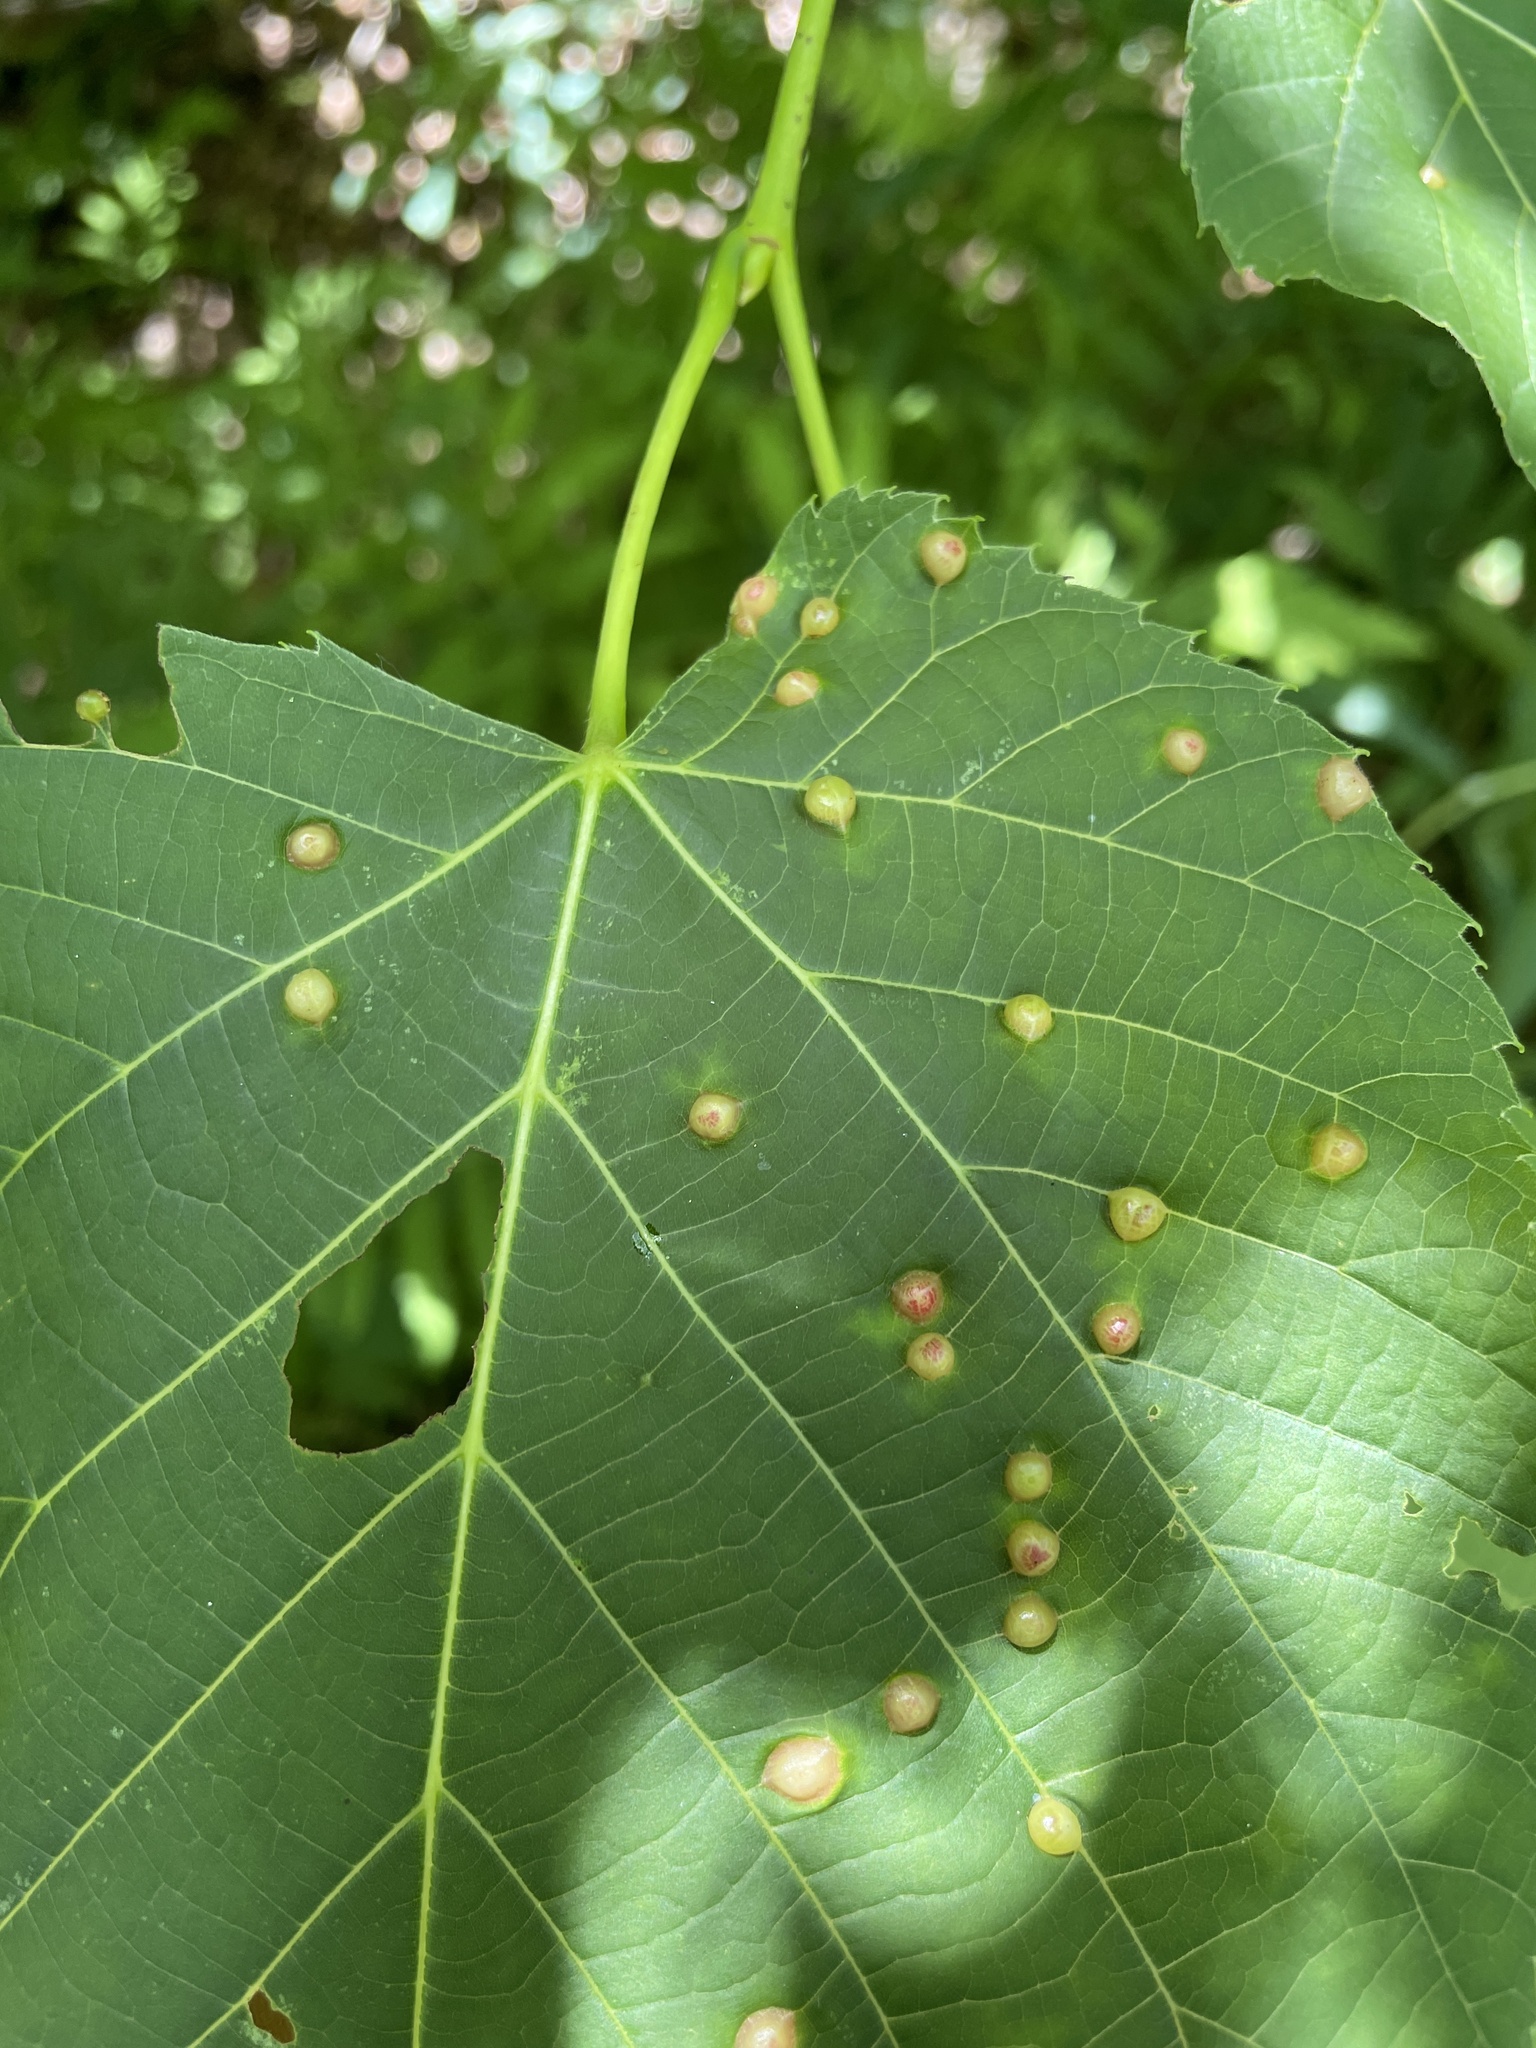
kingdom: Animalia
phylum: Arthropoda
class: Insecta
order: Diptera
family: Cecidomyiidae
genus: Contarinia
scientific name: Contarinia verrucicola
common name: Linden wart gall midge
